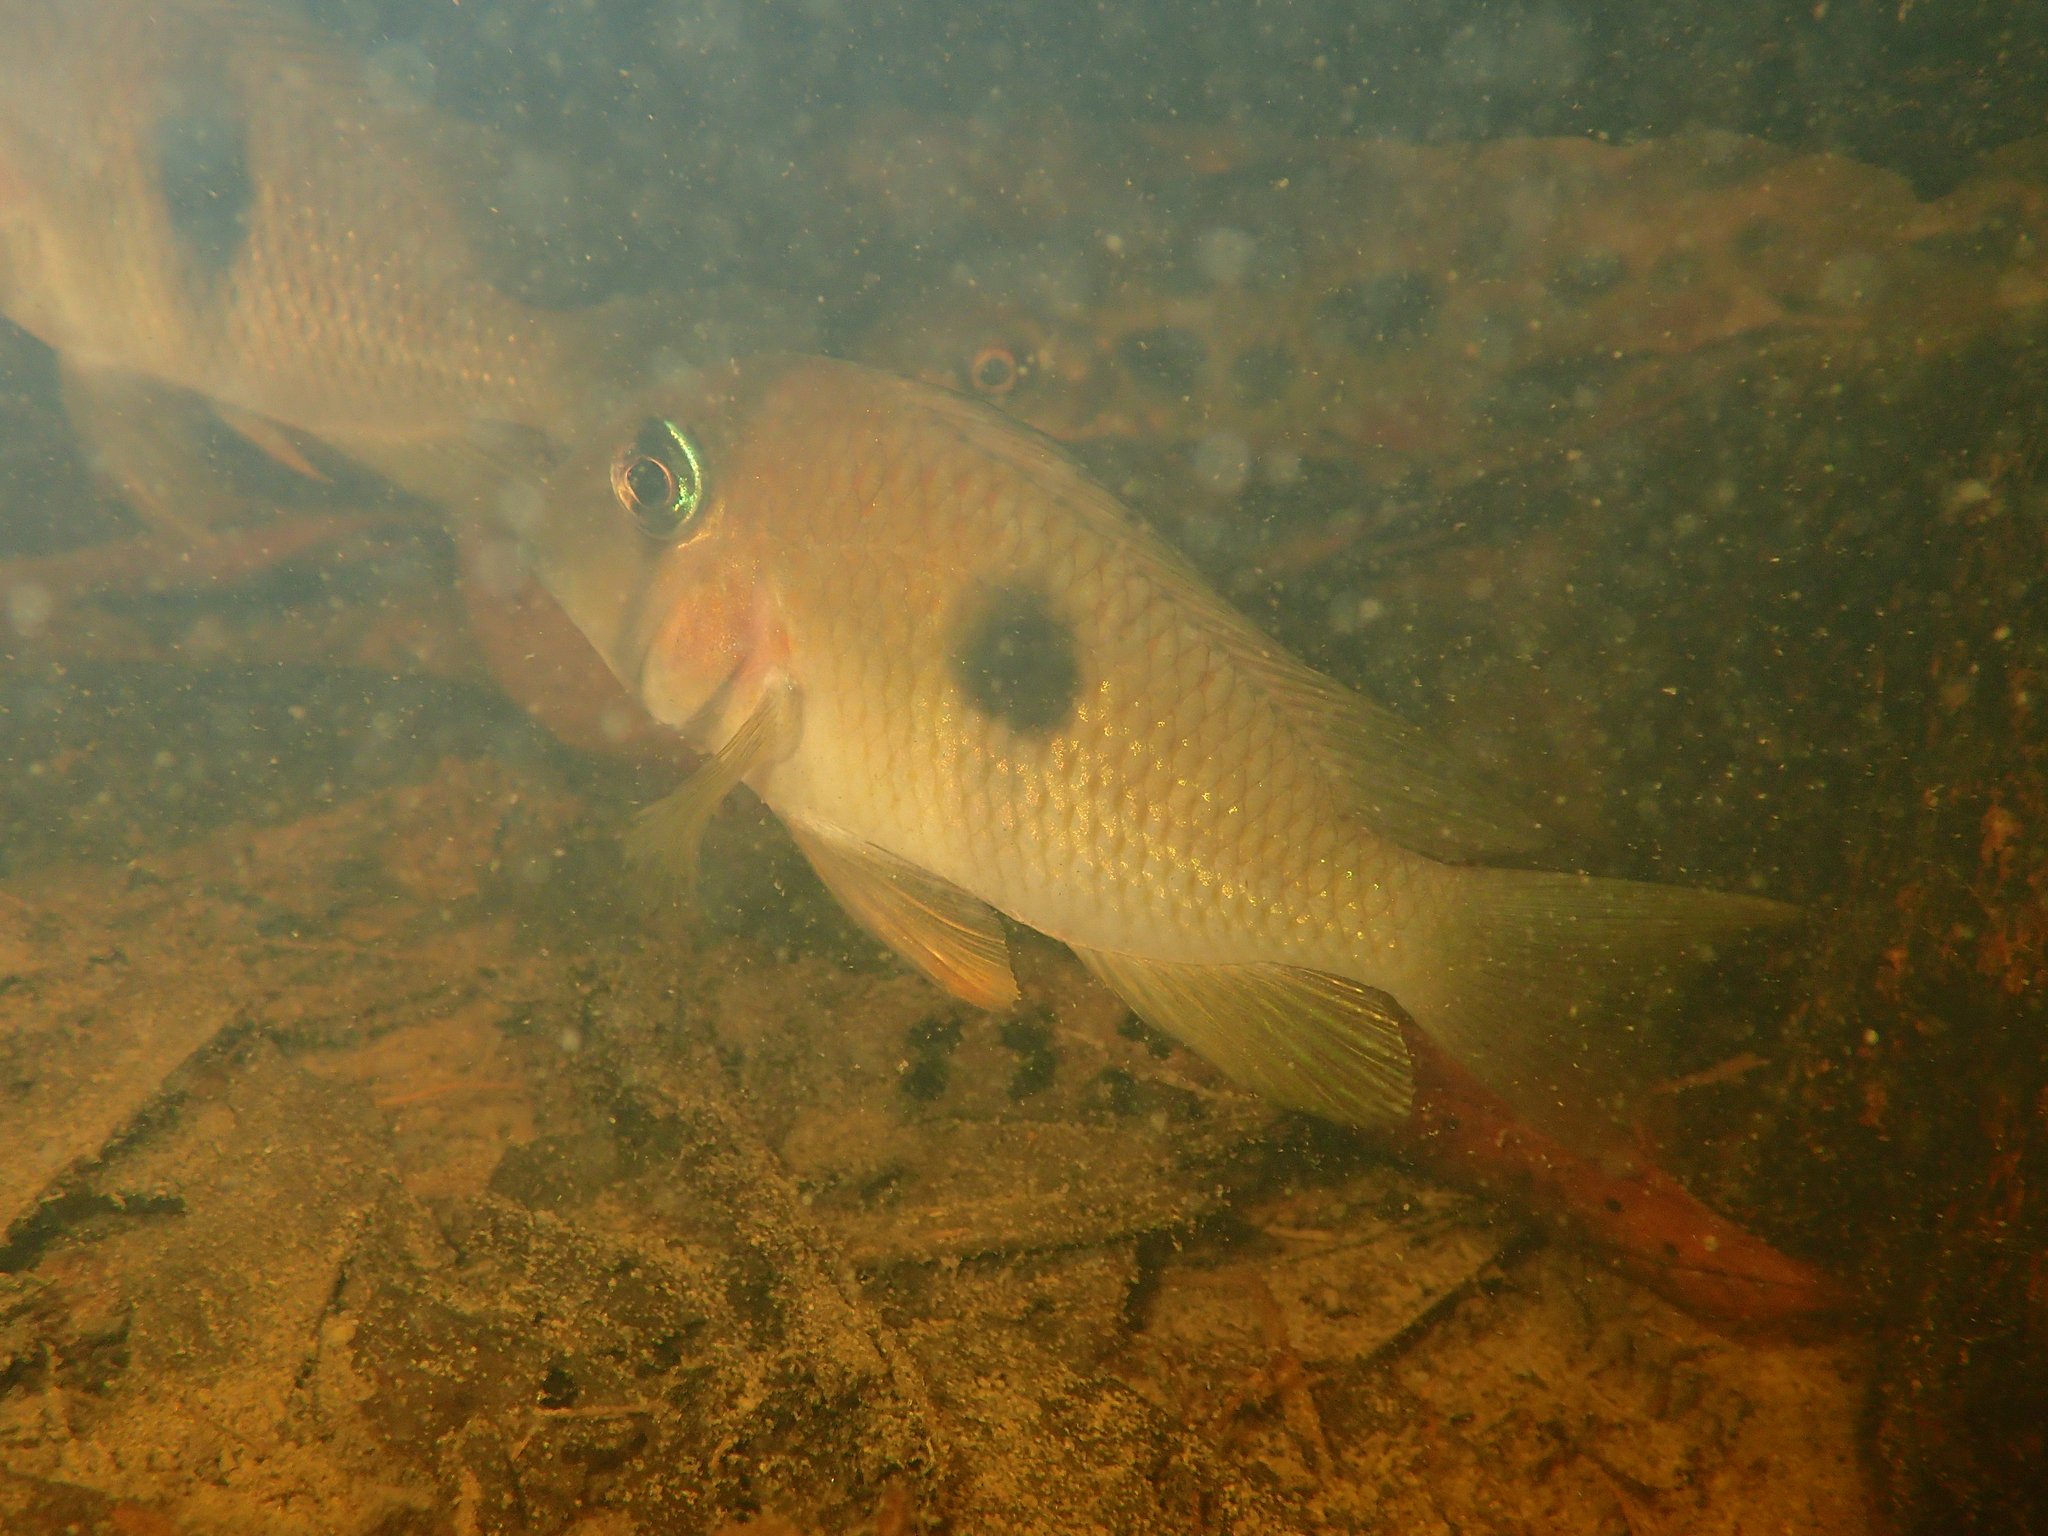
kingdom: Animalia
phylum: Chordata
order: Perciformes
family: Cichlidae
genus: Guianacara
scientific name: Guianacara owroewefi
